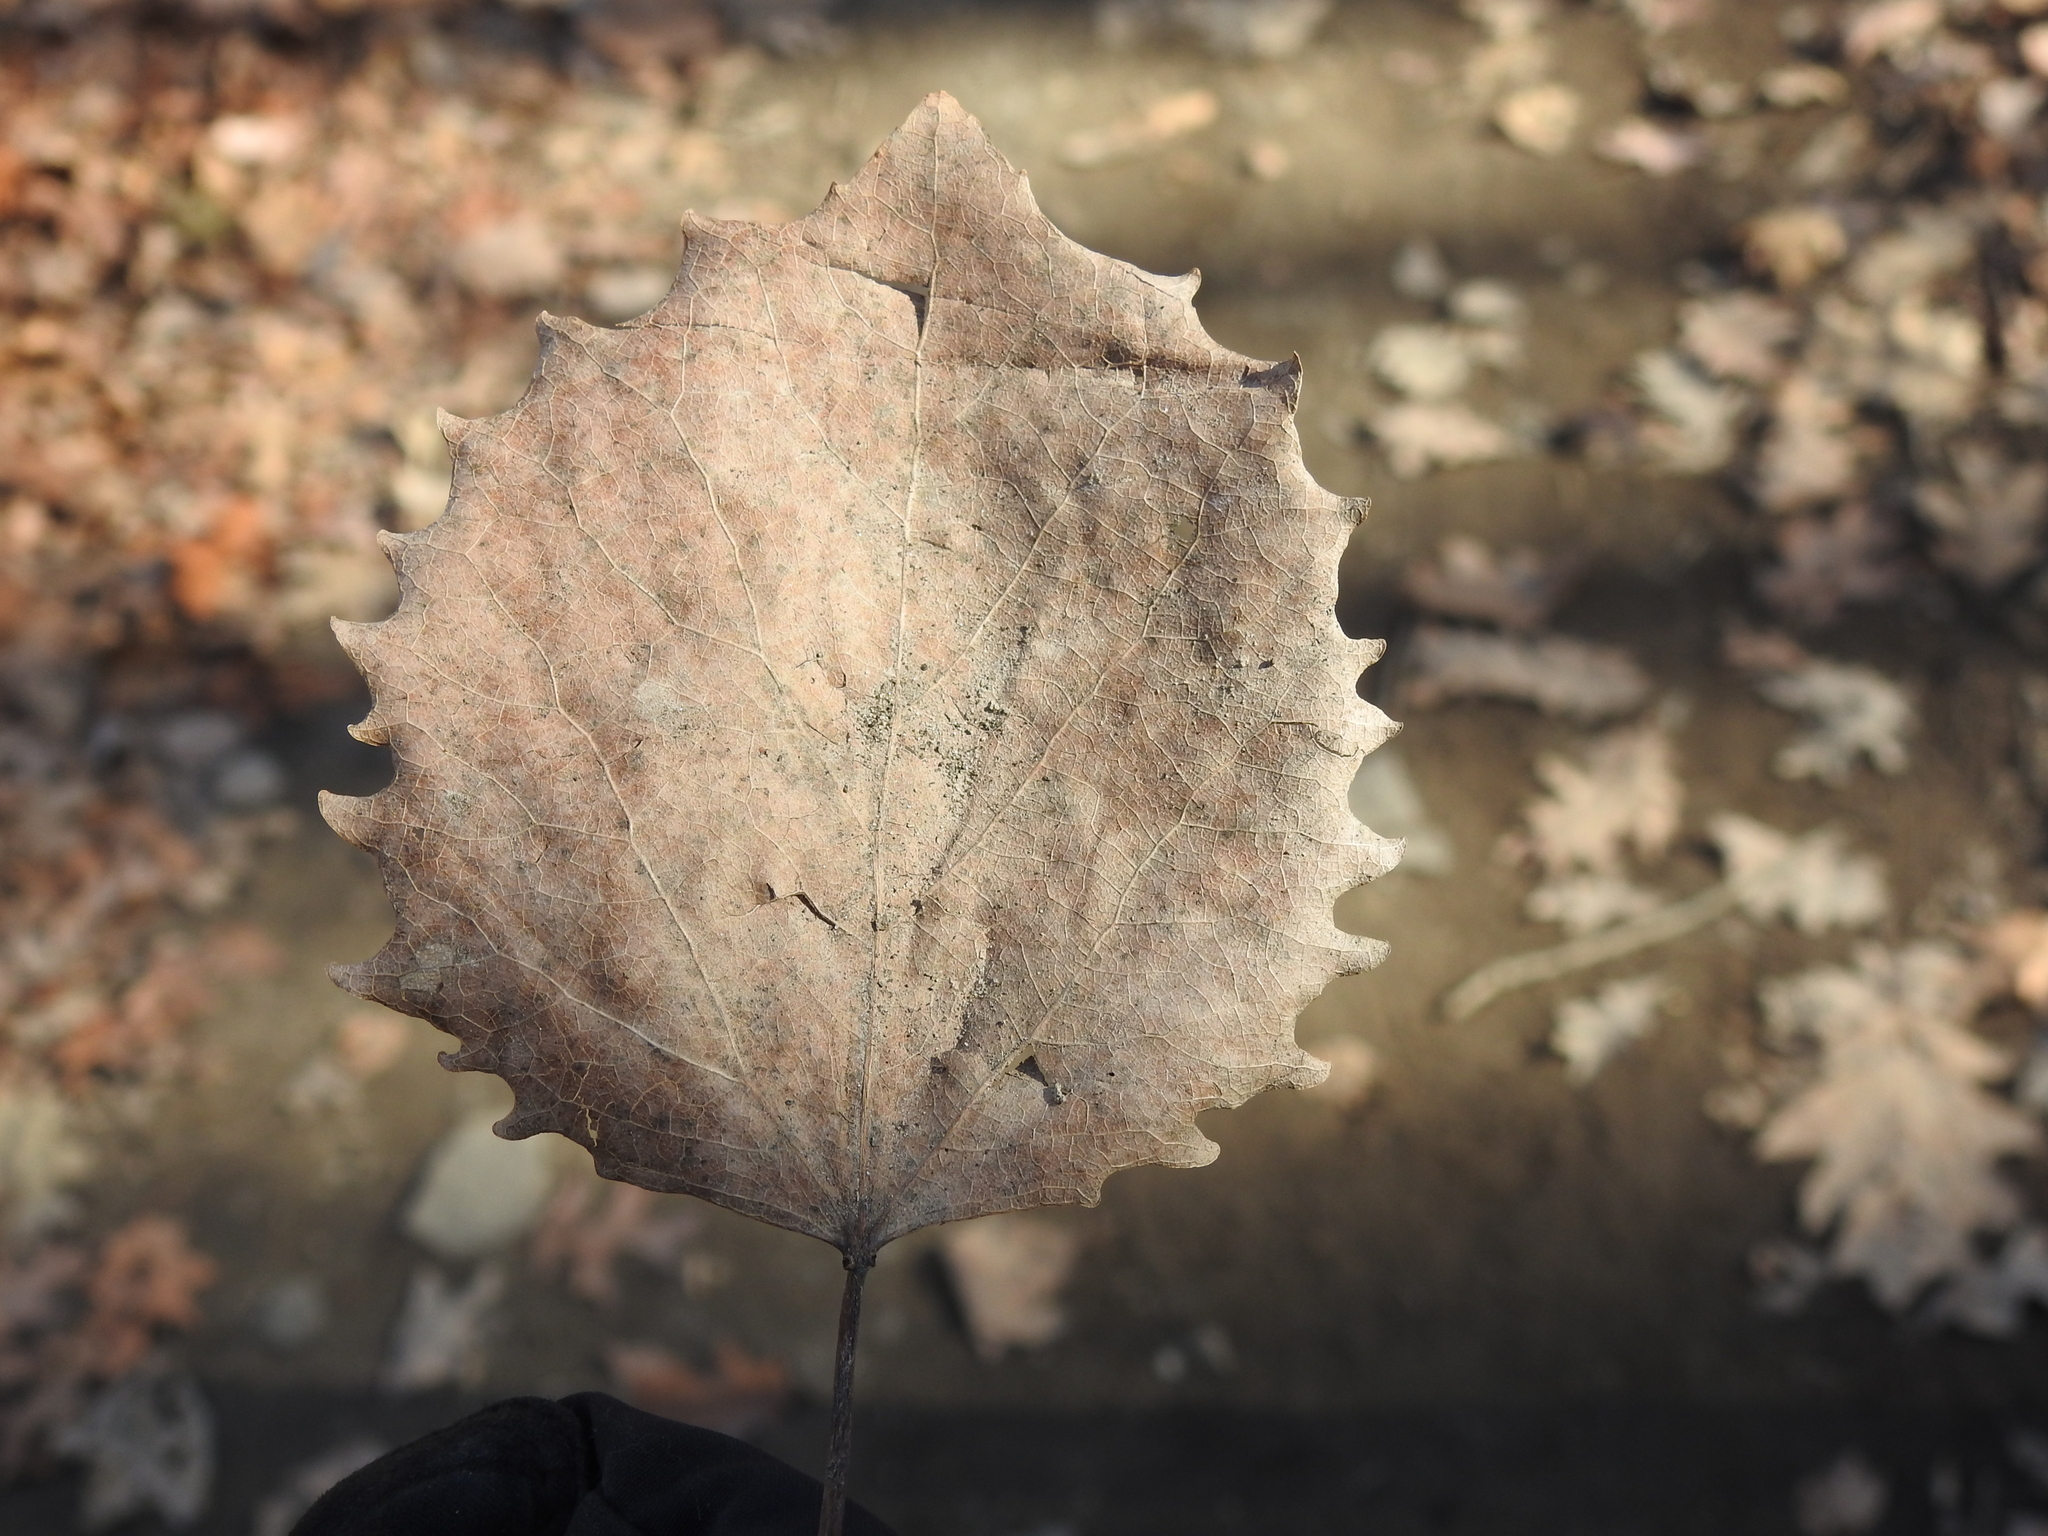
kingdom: Plantae
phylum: Tracheophyta
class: Magnoliopsida
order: Malpighiales
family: Salicaceae
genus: Populus
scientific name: Populus grandidentata
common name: Bigtooth aspen
